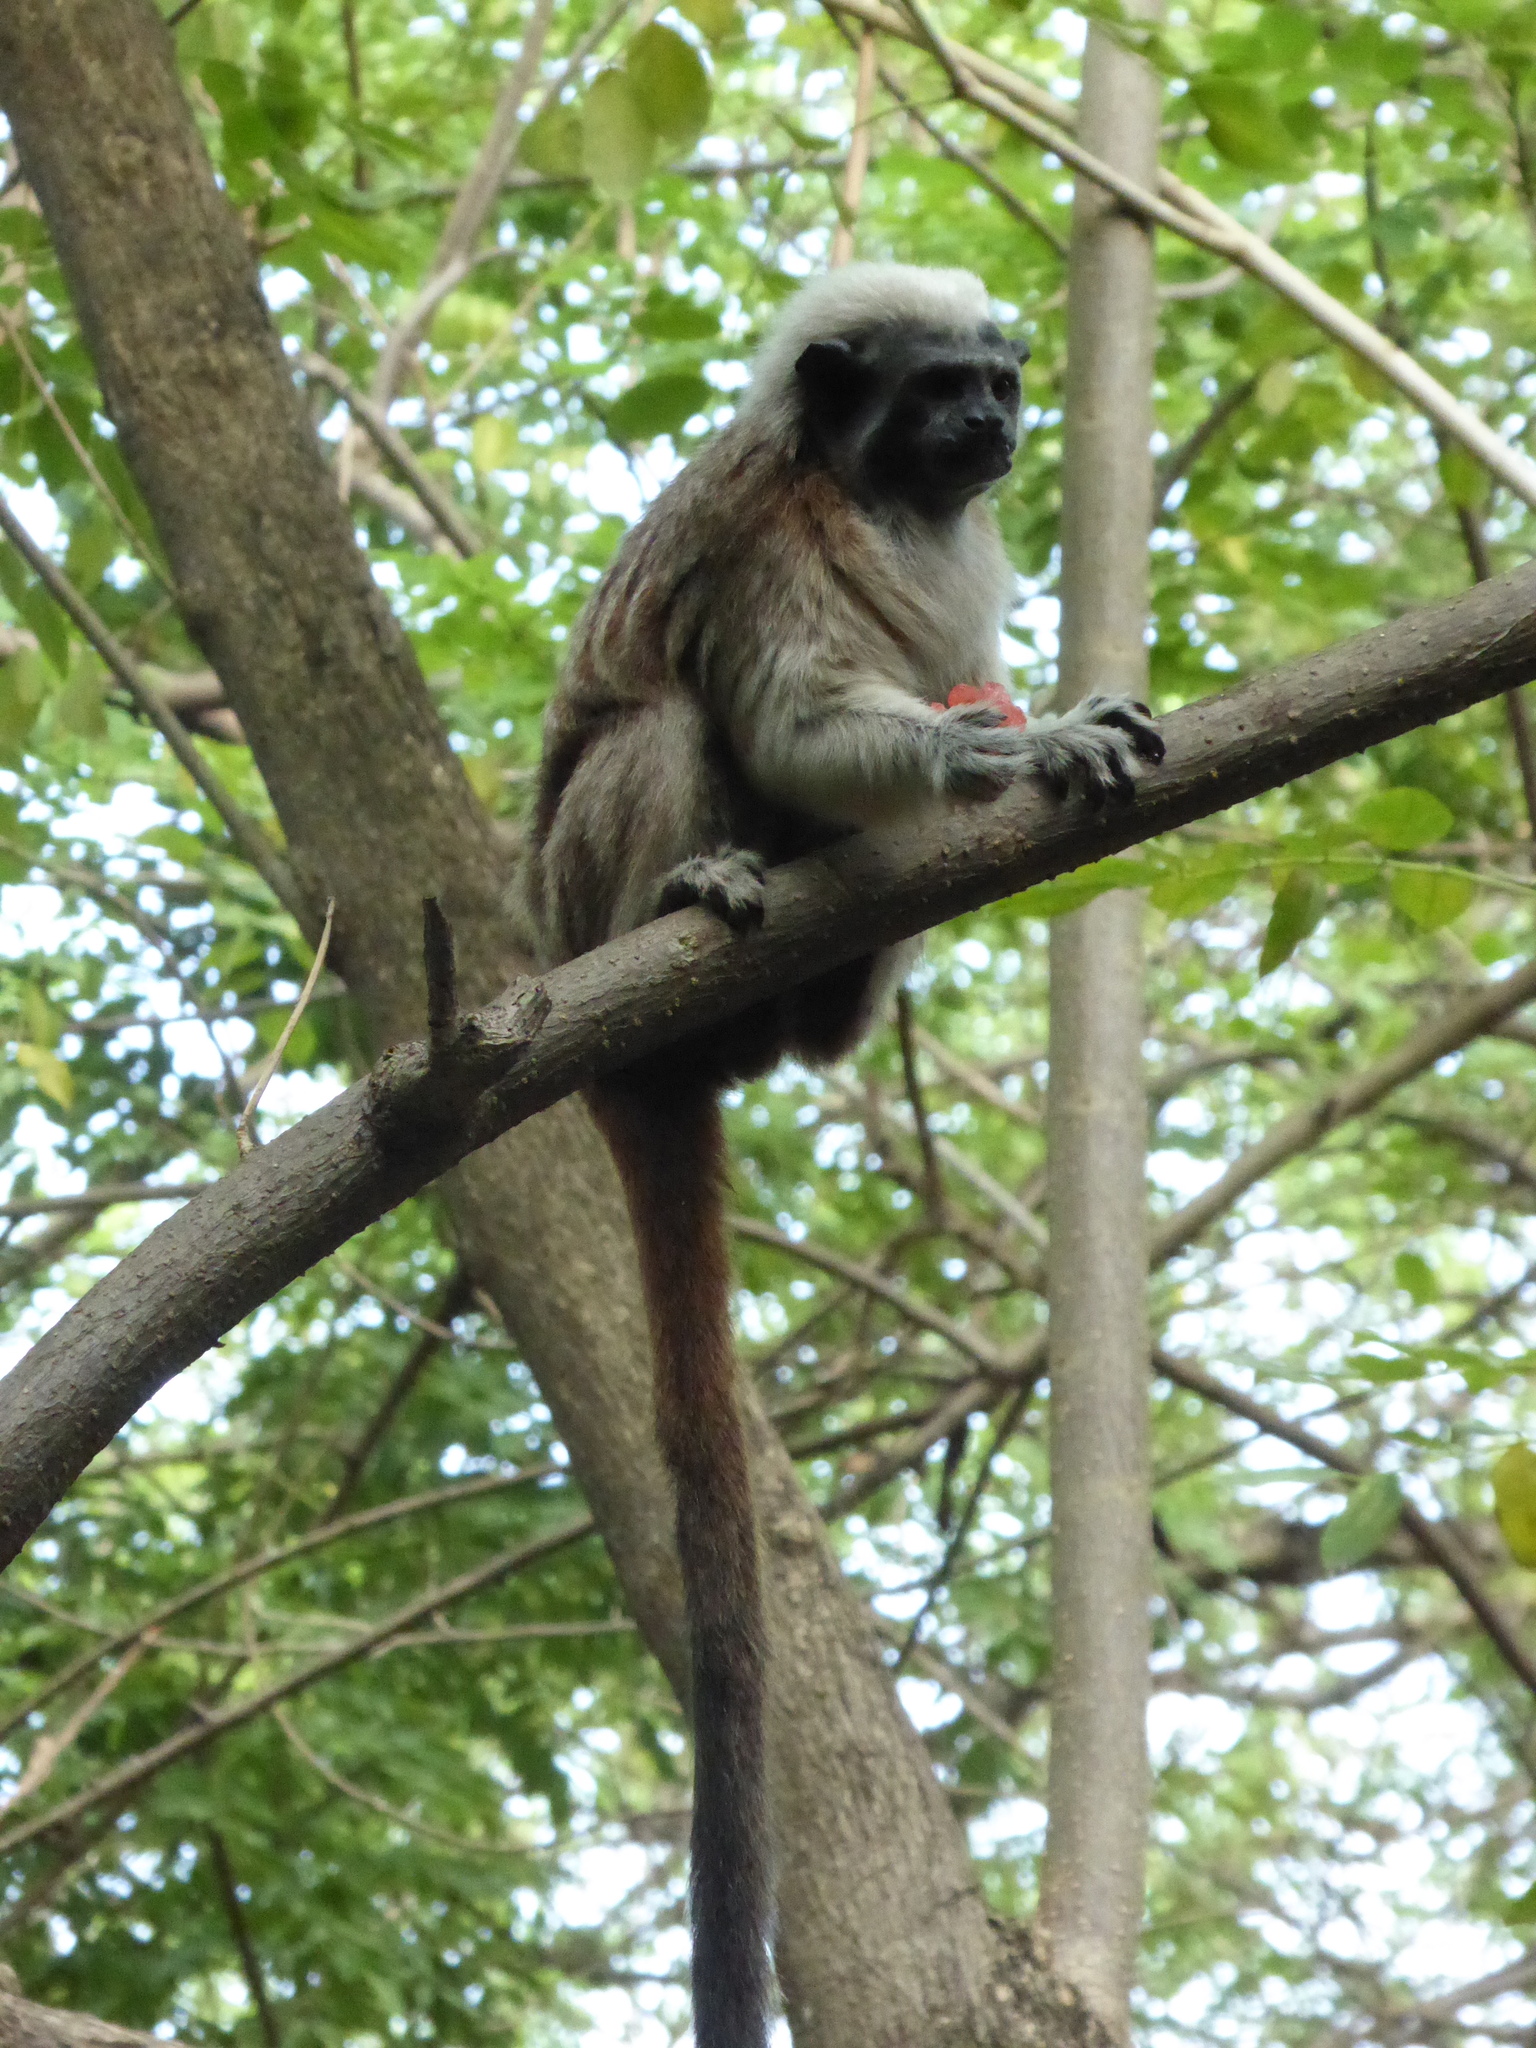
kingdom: Animalia
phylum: Chordata
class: Mammalia
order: Primates
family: Callitrichidae
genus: Saguinus
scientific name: Saguinus oedipus
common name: Cottontop tamarin
